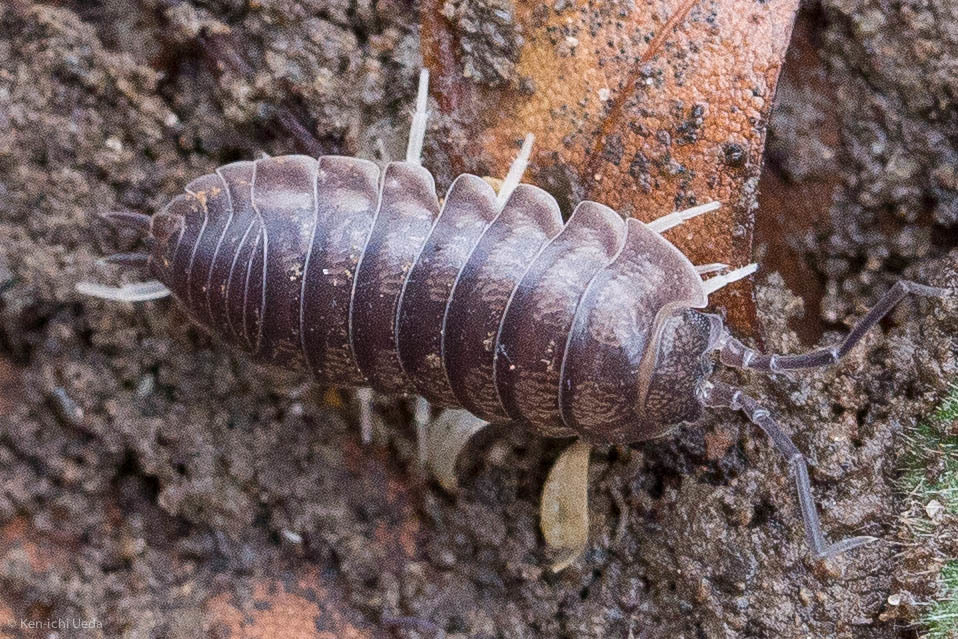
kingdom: Animalia
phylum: Arthropoda
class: Malacostraca
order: Isopoda
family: Cylisticidae
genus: Cylisticus
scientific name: Cylisticus convexus
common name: Curly woodlouse
